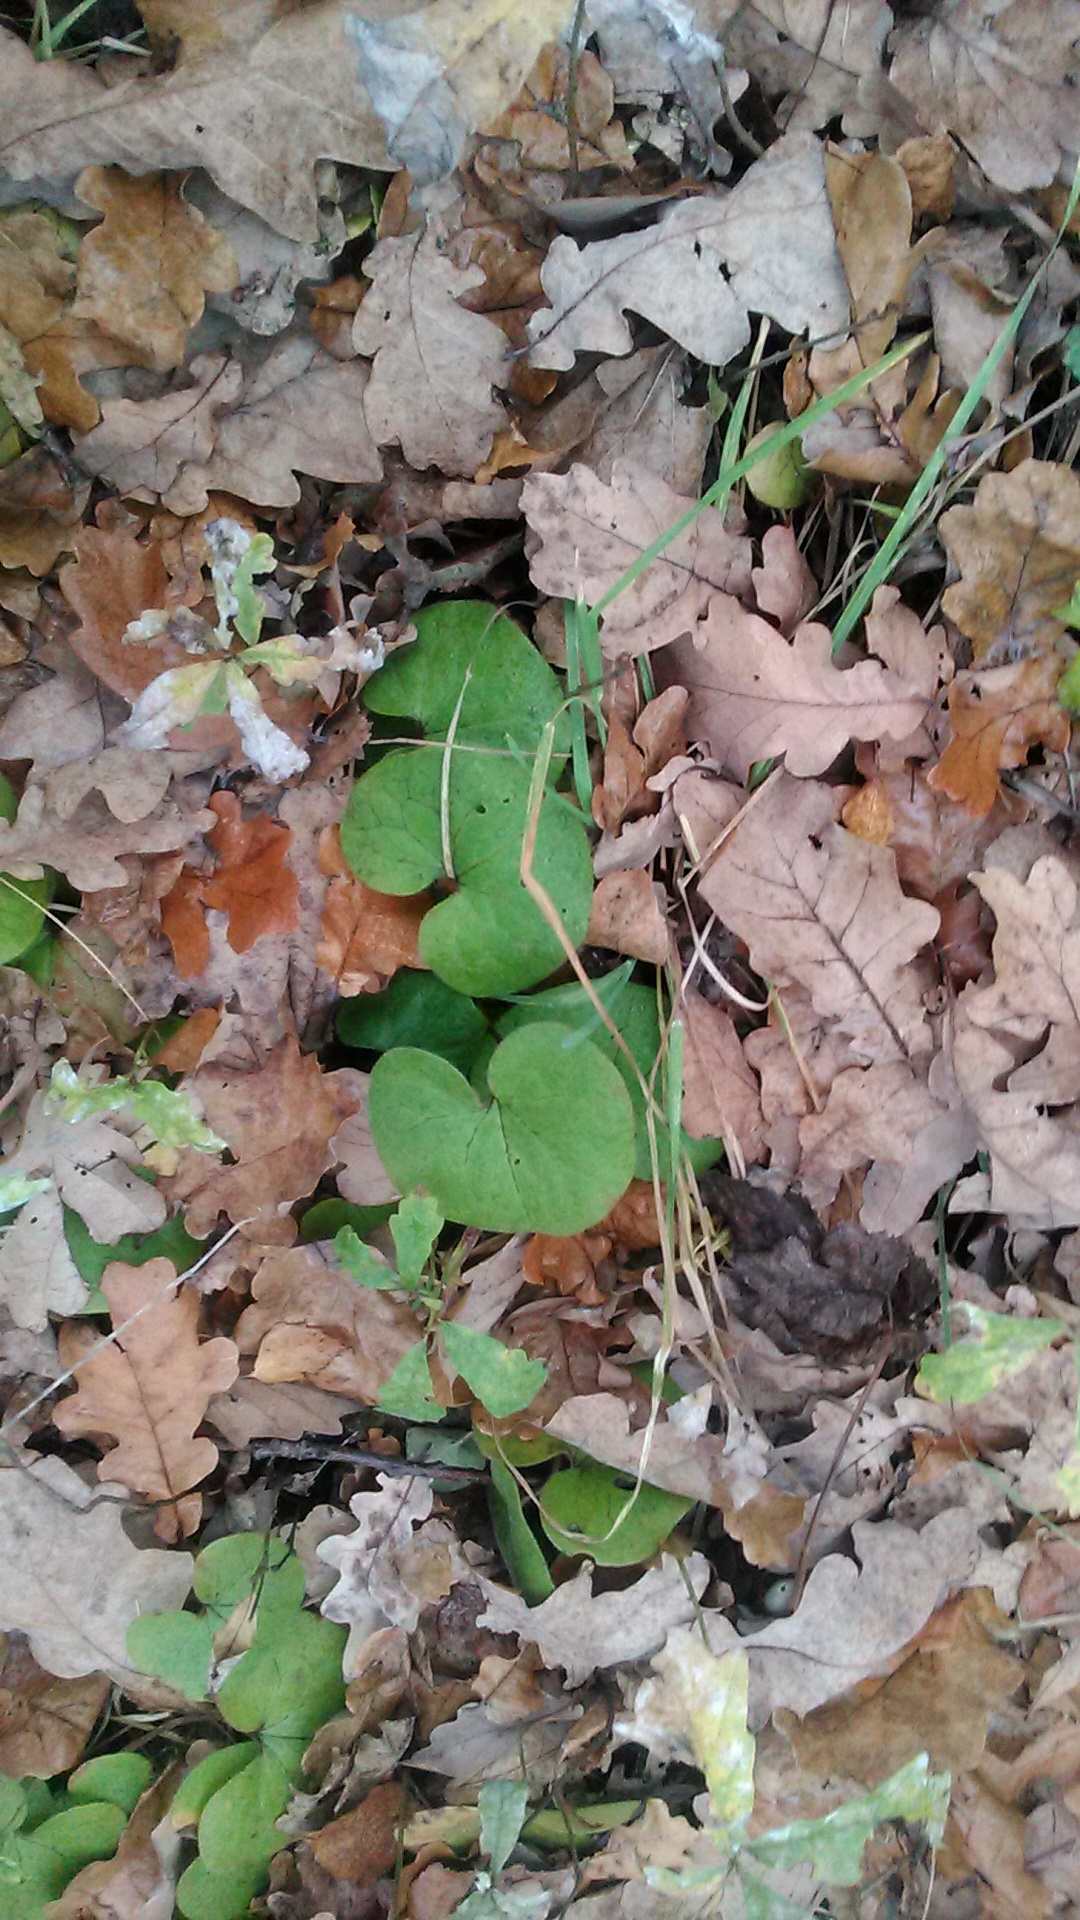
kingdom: Plantae
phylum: Tracheophyta
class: Magnoliopsida
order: Piperales
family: Aristolochiaceae
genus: Asarum
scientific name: Asarum europaeum
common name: Asarabacca
